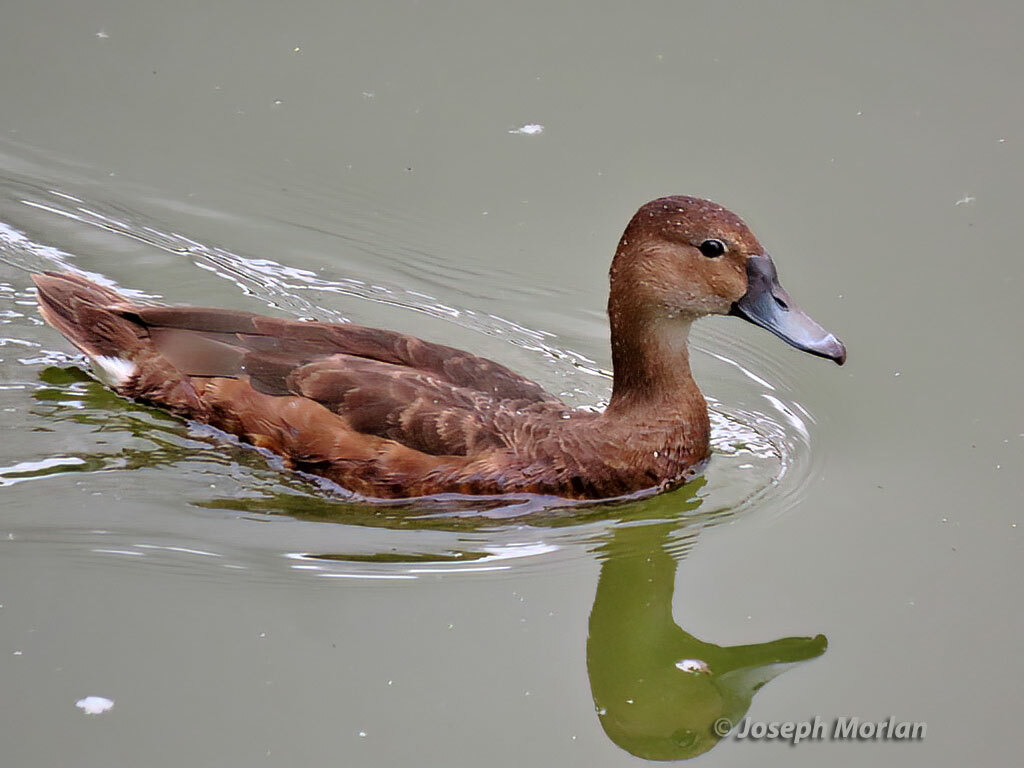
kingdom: Animalia
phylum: Chordata
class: Aves
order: Anseriformes
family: Anatidae
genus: Netta
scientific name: Netta peposaca
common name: Rosy-billed pochard
